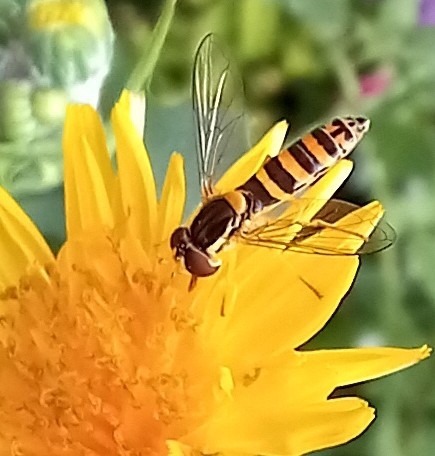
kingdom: Animalia
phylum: Arthropoda
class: Insecta
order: Diptera
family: Syrphidae
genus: Sphaerophoria
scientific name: Sphaerophoria
